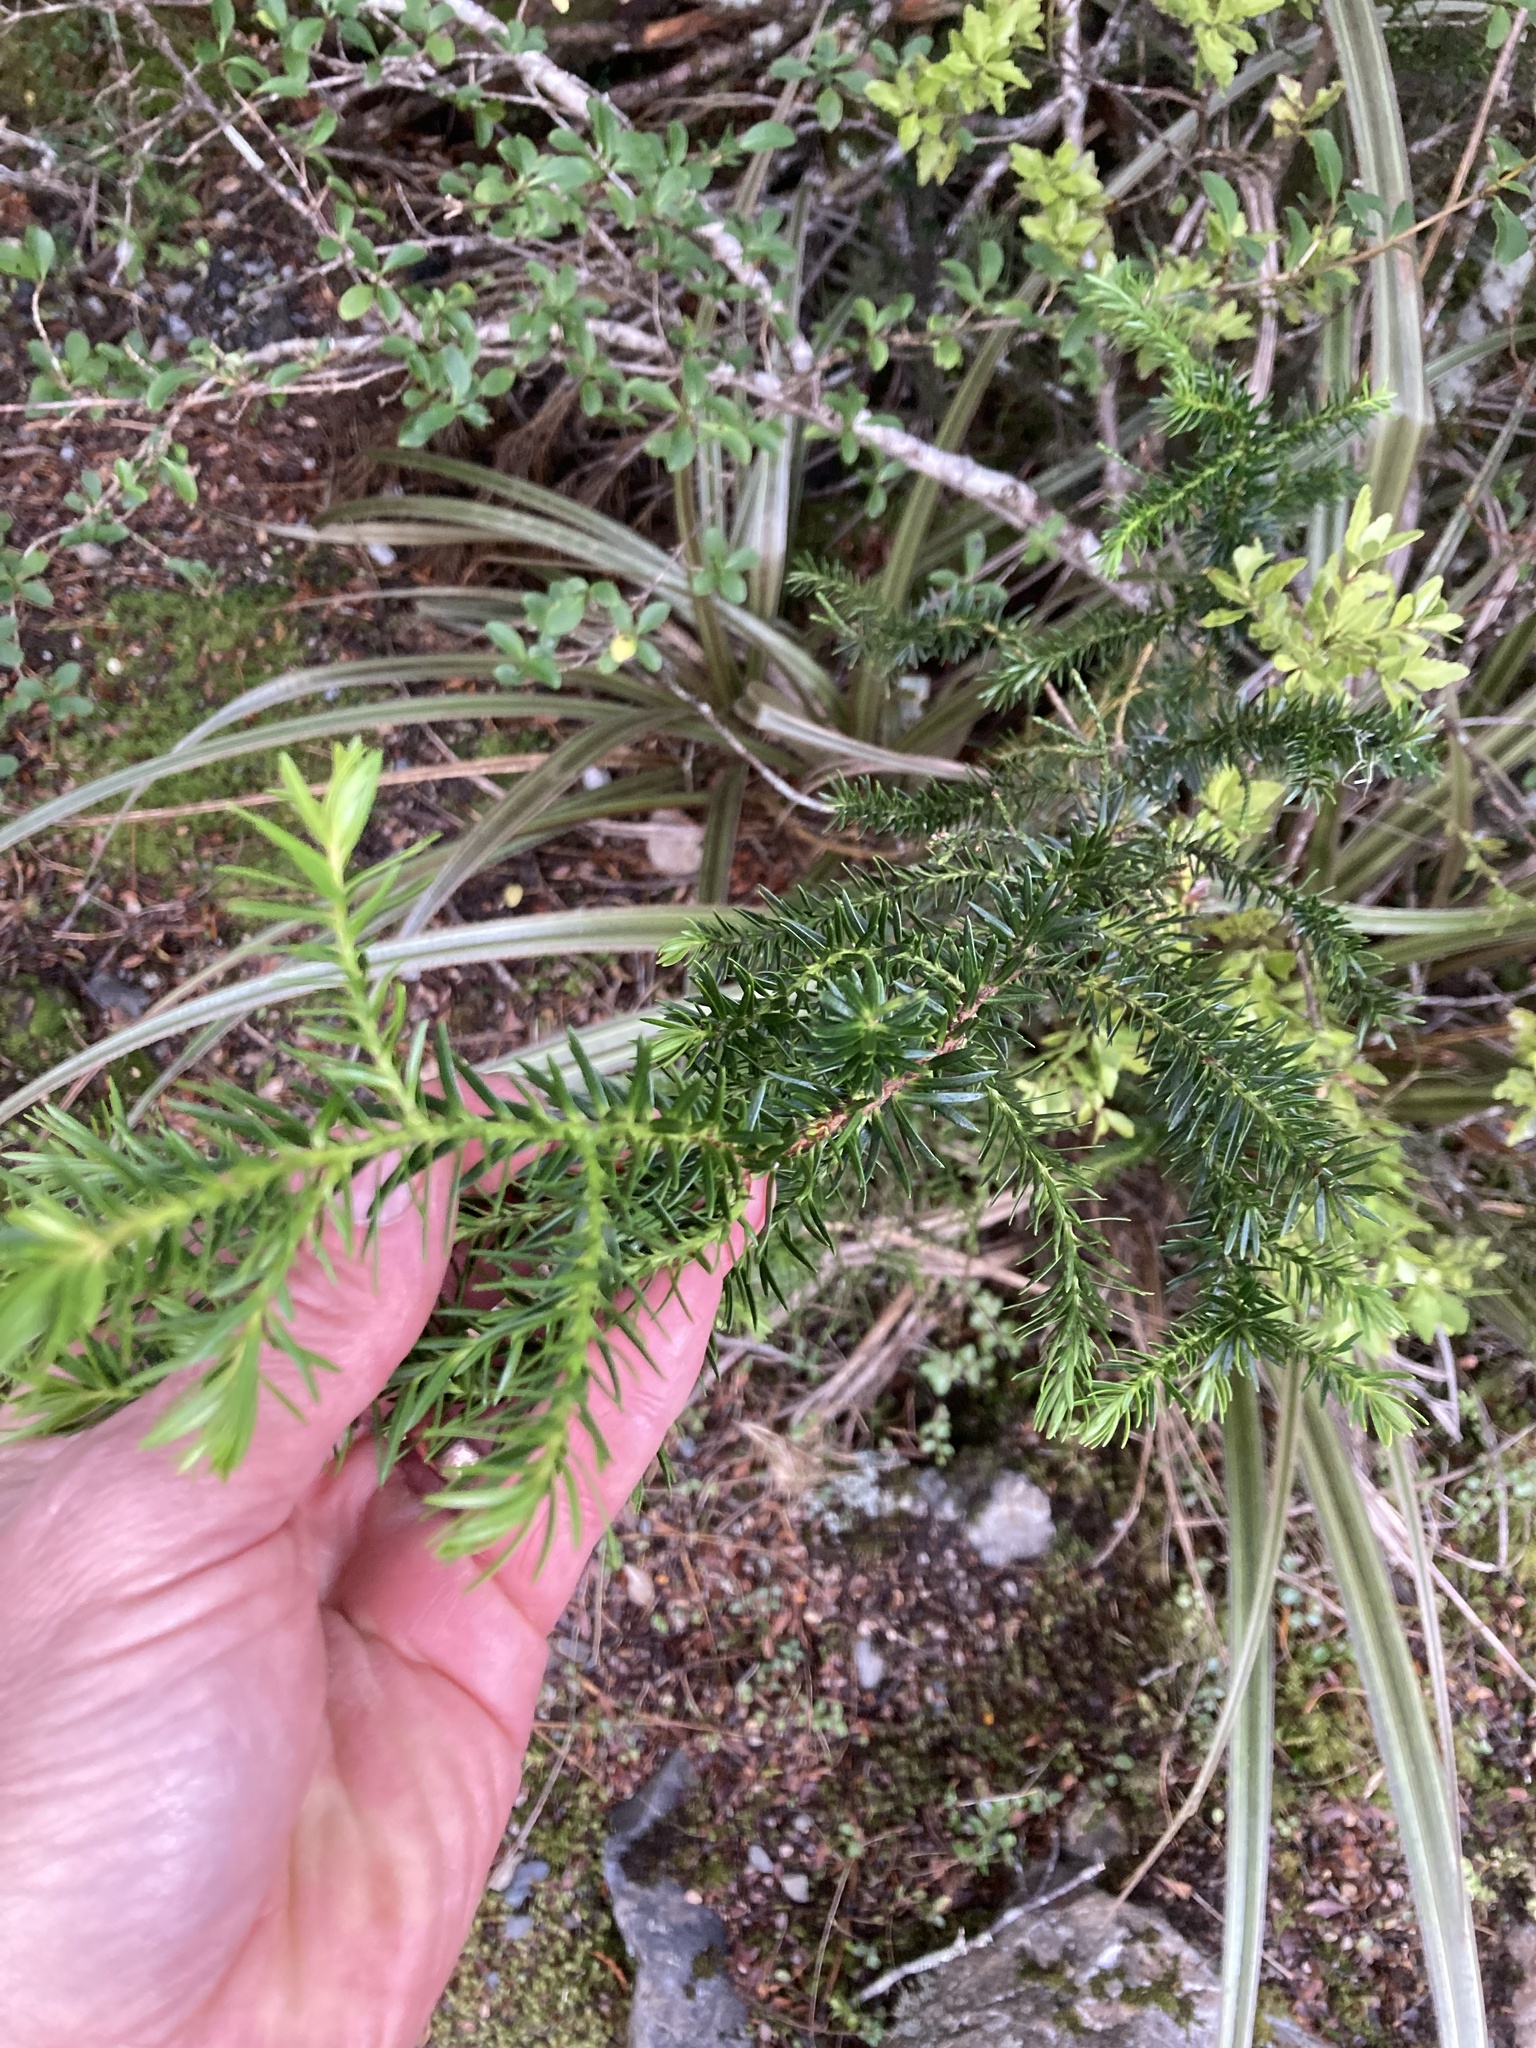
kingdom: Plantae
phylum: Tracheophyta
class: Pinopsida
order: Pinales
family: Podocarpaceae
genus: Halocarpus
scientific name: Halocarpus biformis
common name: Alpine tarwood
